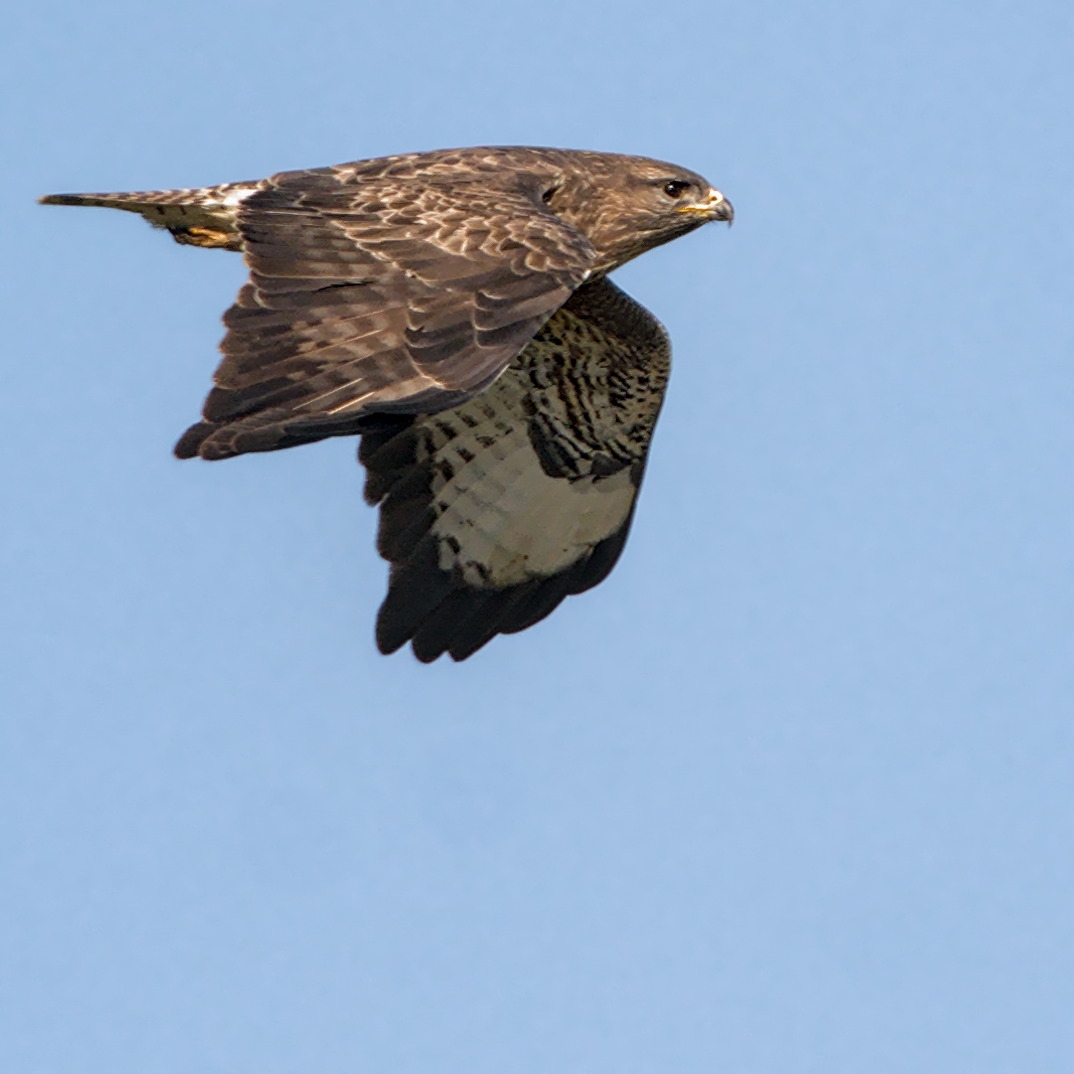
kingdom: Animalia
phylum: Chordata
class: Aves
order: Accipitriformes
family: Accipitridae
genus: Buteo
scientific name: Buteo buteo
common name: Common buzzard
